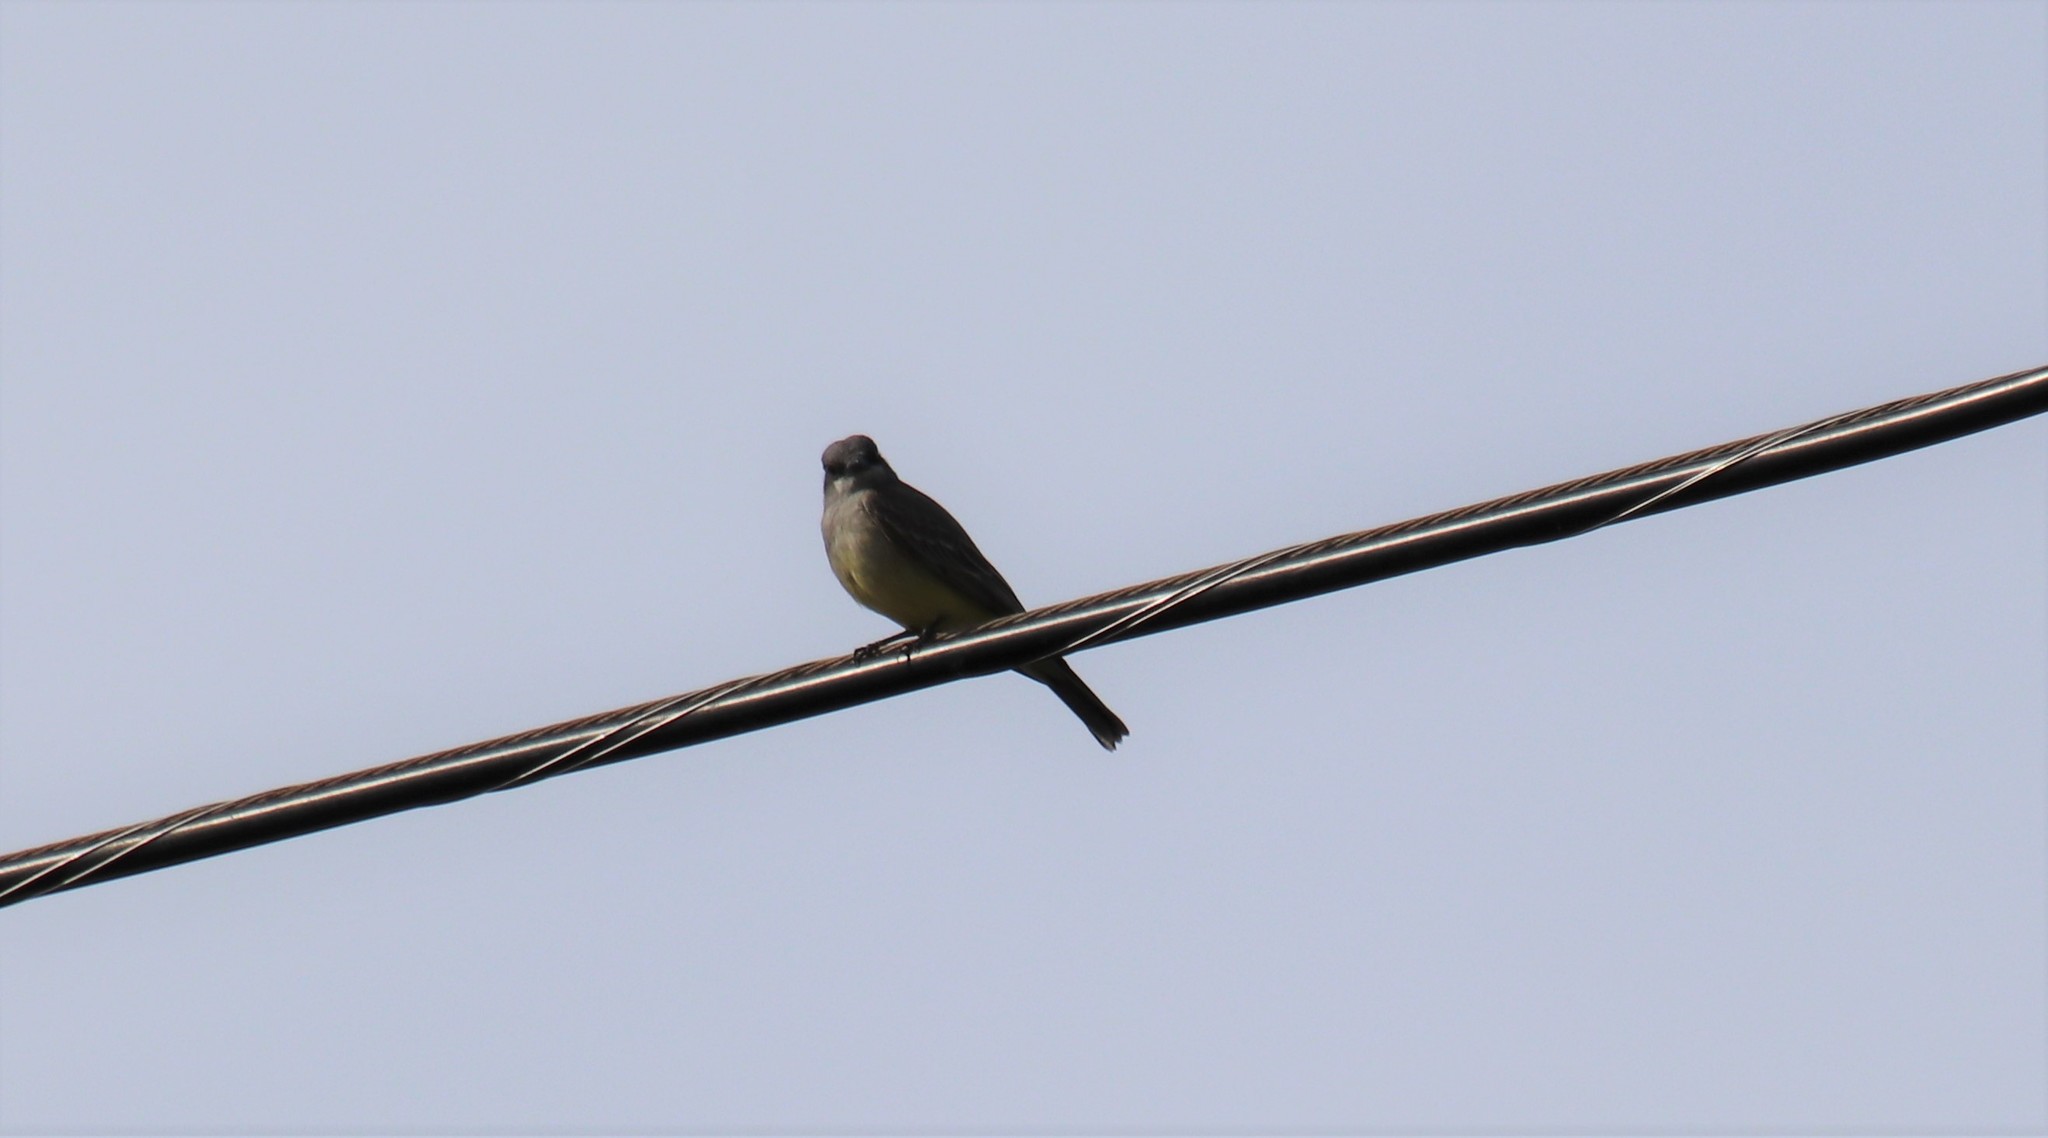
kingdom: Animalia
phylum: Chordata
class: Aves
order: Passeriformes
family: Tyrannidae
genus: Tyrannus
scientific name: Tyrannus vociferans
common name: Cassin's kingbird
